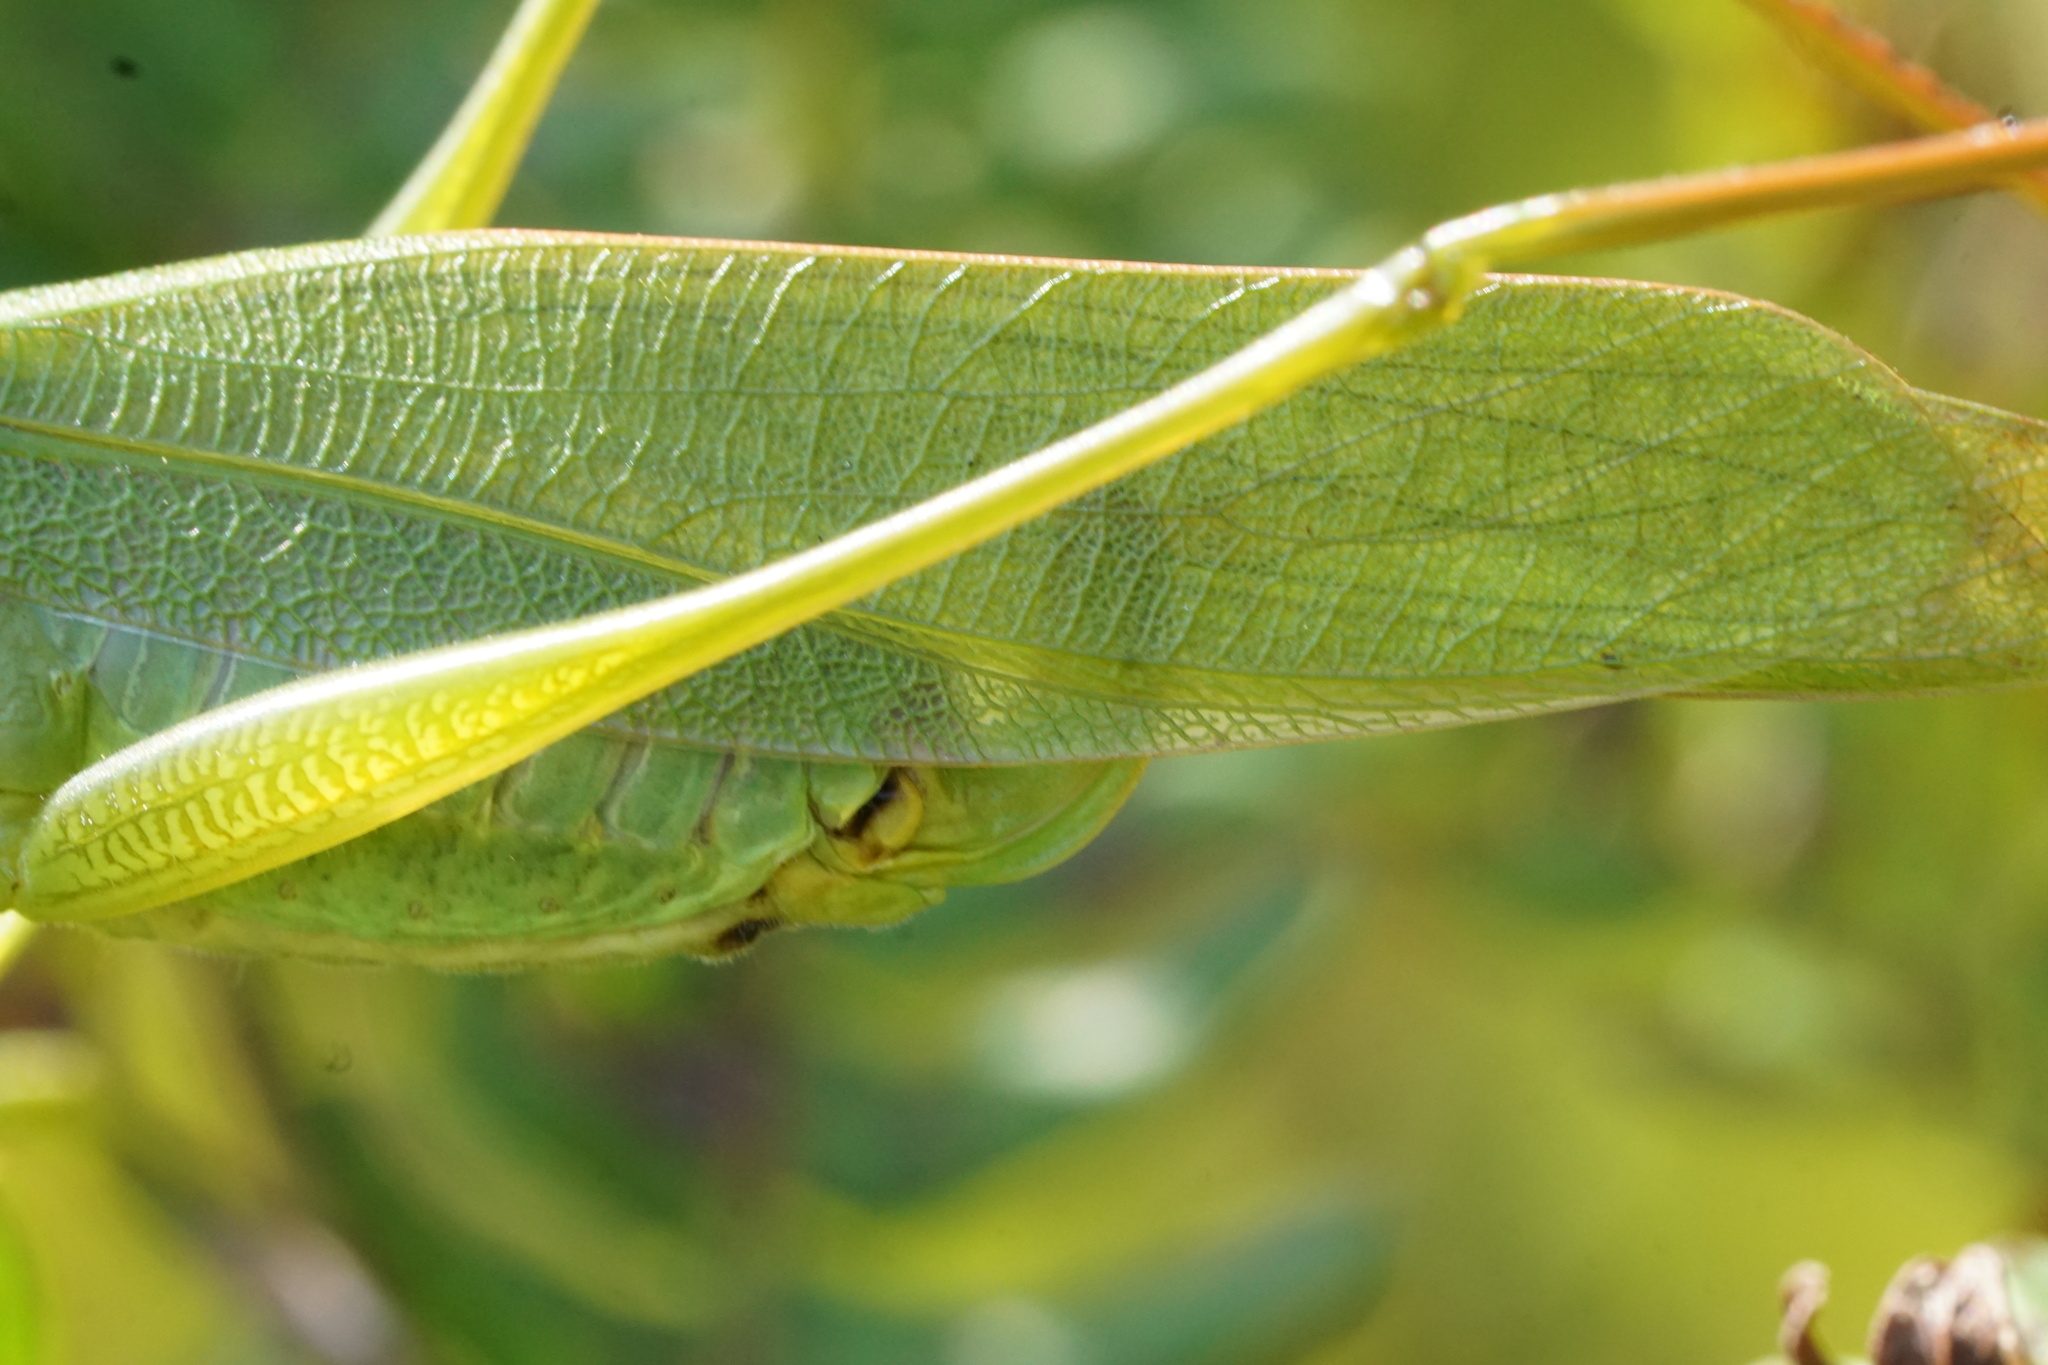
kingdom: Animalia
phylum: Arthropoda
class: Insecta
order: Orthoptera
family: Tettigoniidae
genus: Scudderia
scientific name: Scudderia curvicauda
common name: Curve-tailed bush katydid
